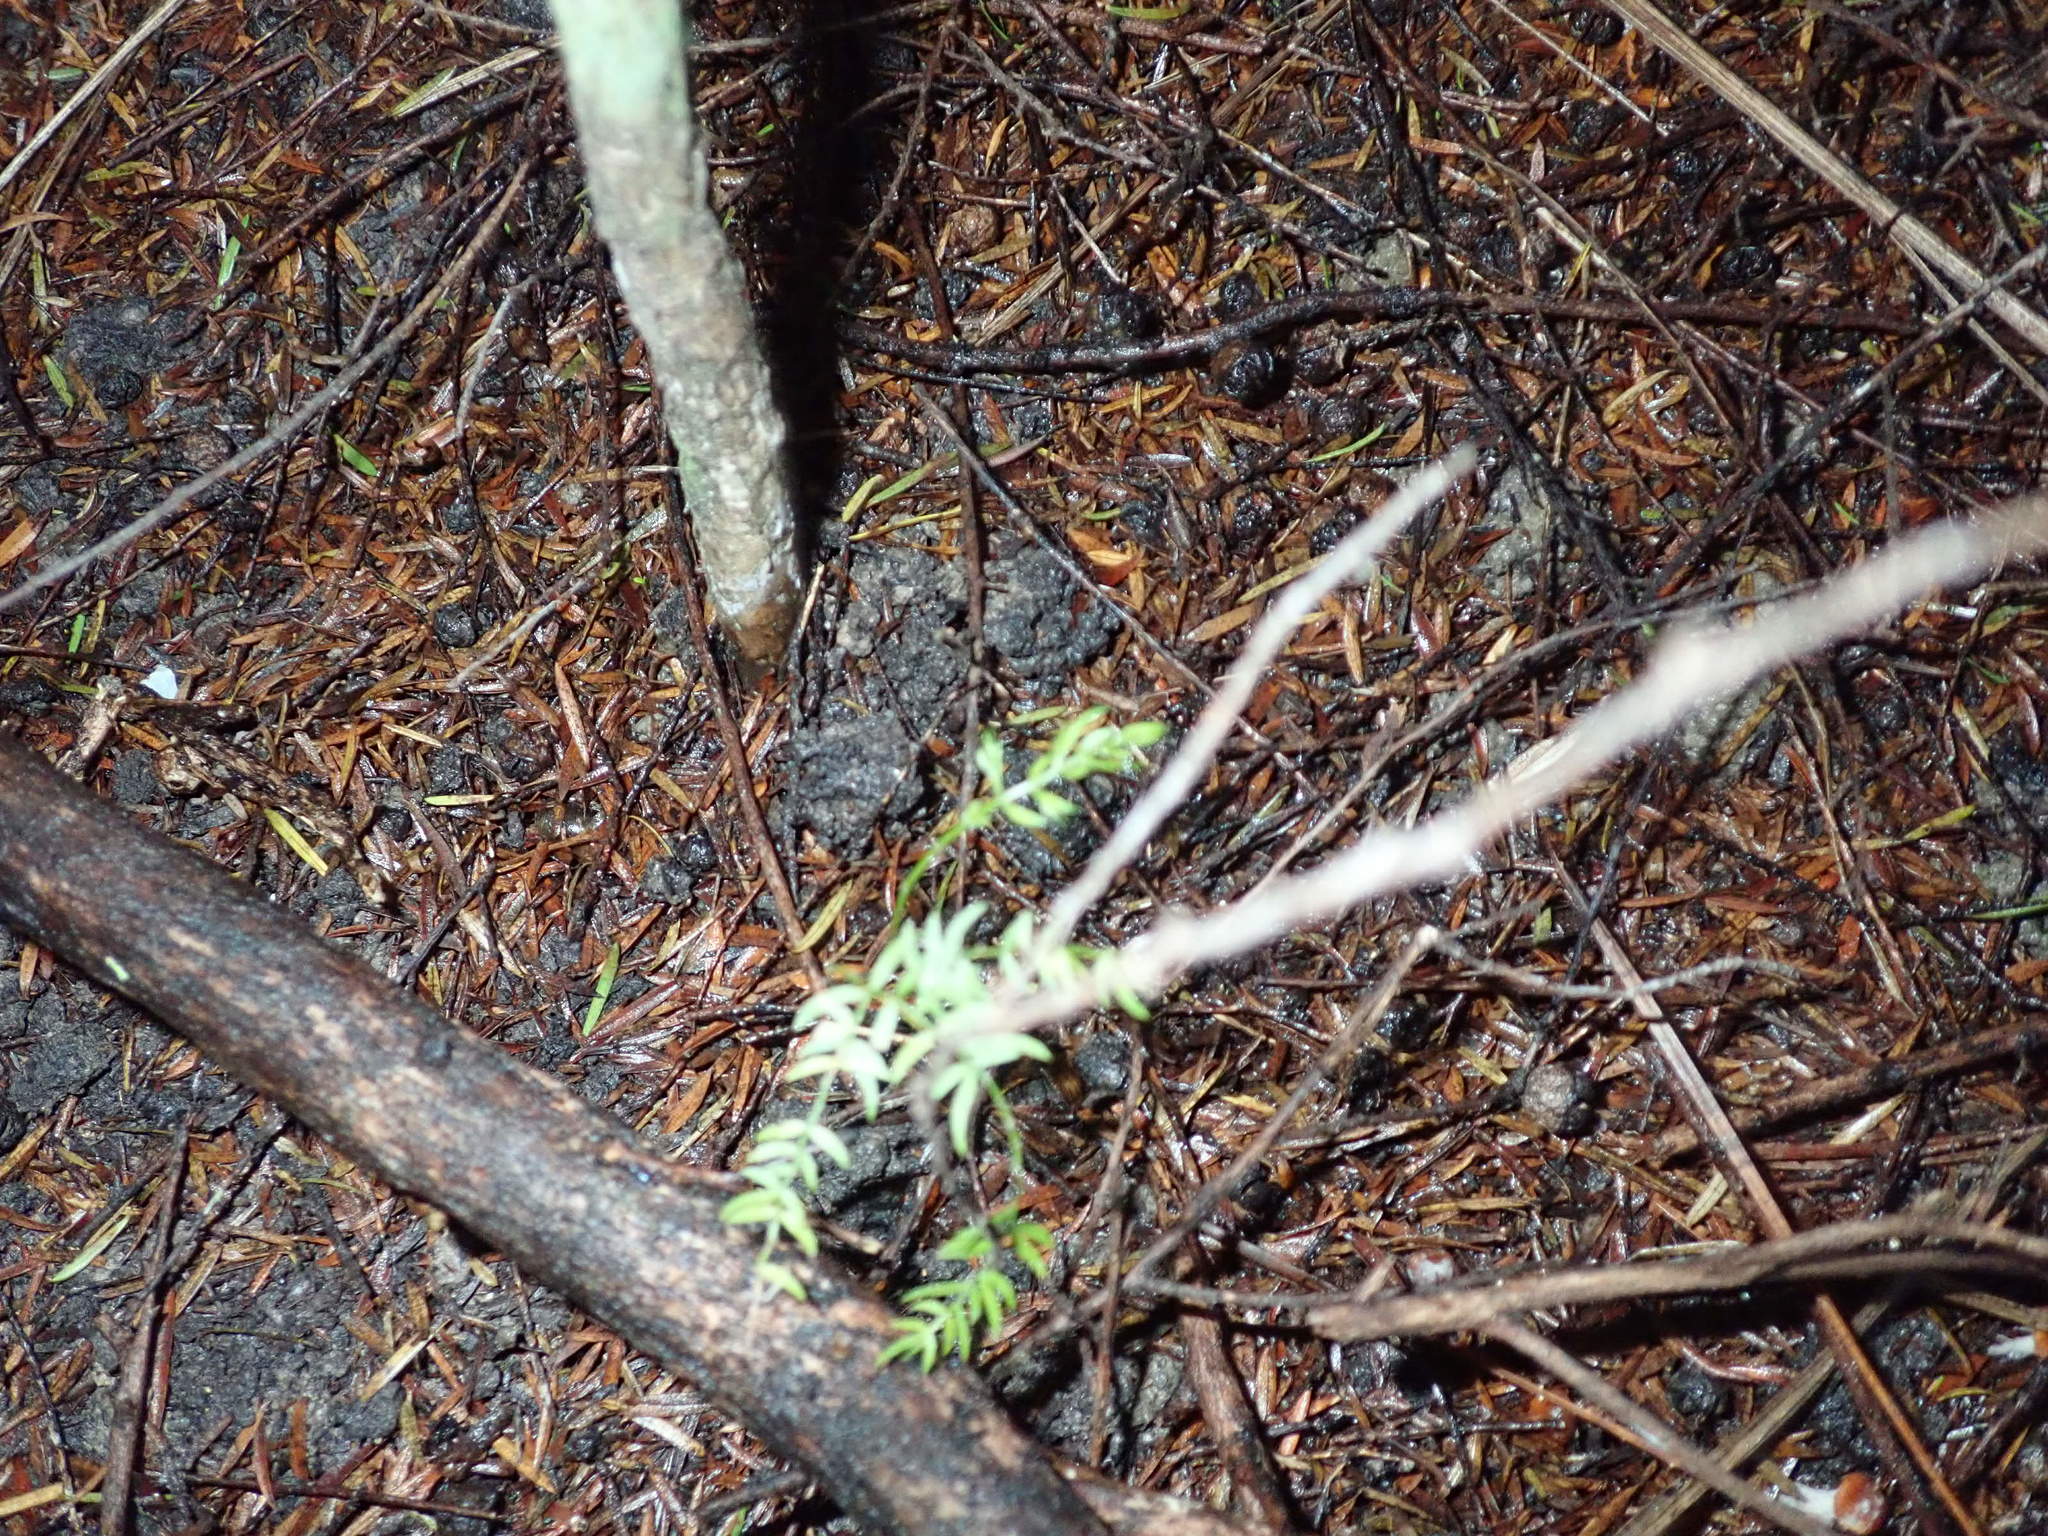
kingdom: Plantae
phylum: Tracheophyta
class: Liliopsida
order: Asparagales
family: Asparagaceae
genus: Asparagus
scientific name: Asparagus scandens
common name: Asparagus-fern
